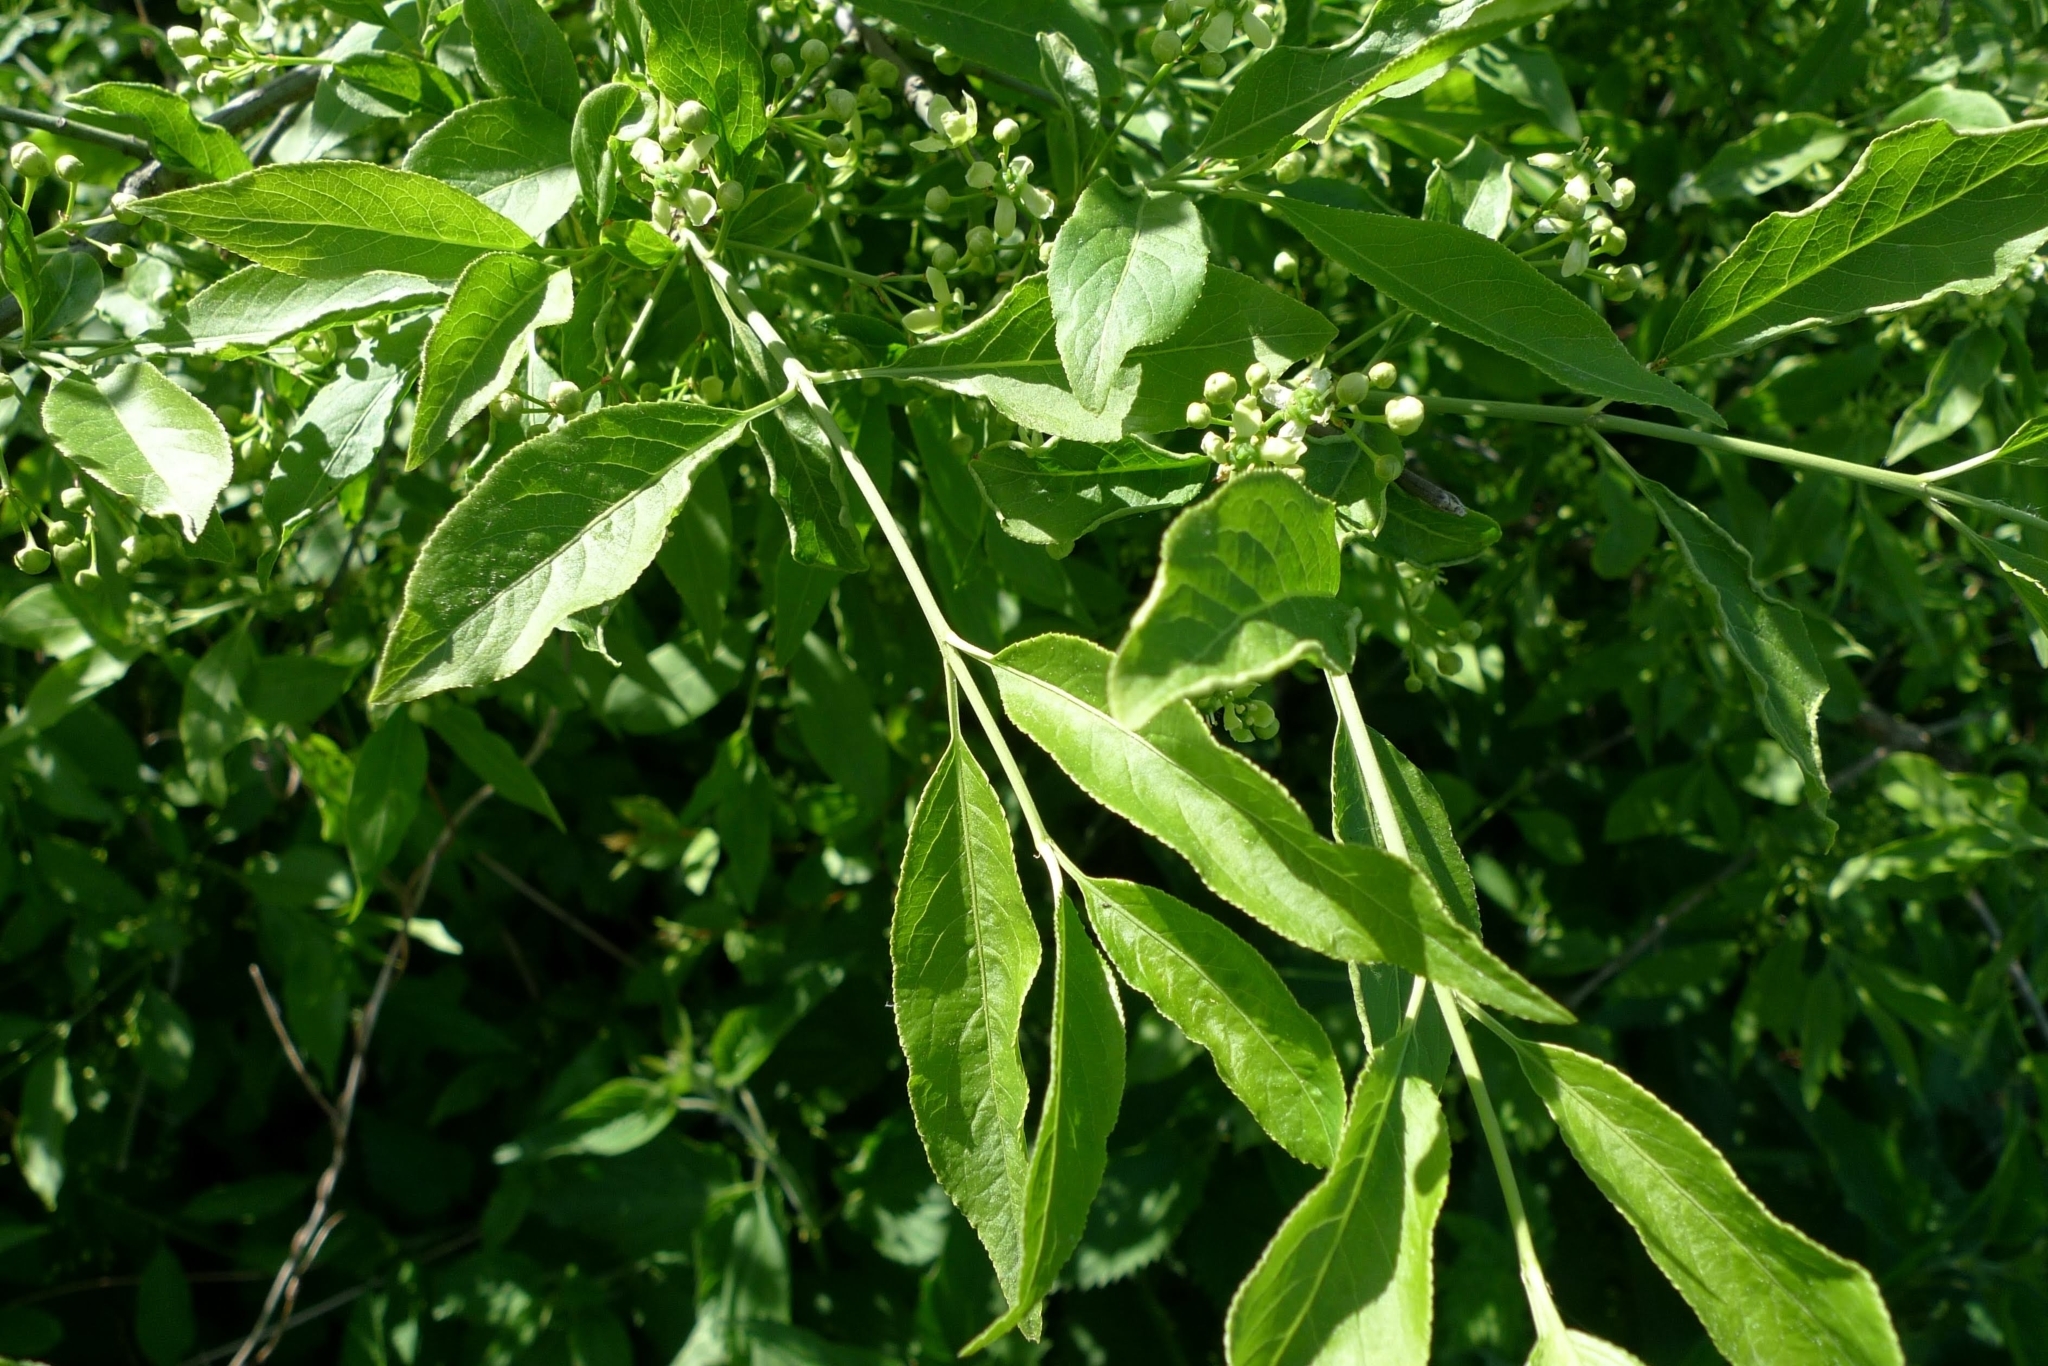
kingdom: Plantae
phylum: Tracheophyta
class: Magnoliopsida
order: Celastrales
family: Celastraceae
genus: Euonymus
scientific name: Euonymus europaeus
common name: Spindle
